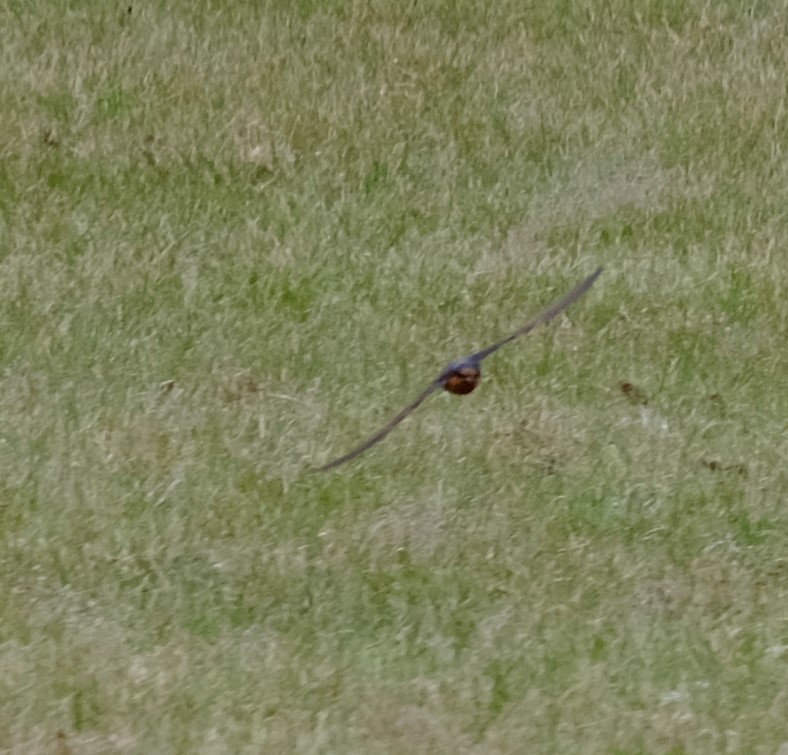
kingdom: Animalia
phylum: Chordata
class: Aves
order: Passeriformes
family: Hirundinidae
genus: Hirundo
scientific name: Hirundo neoxena
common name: Welcome swallow
